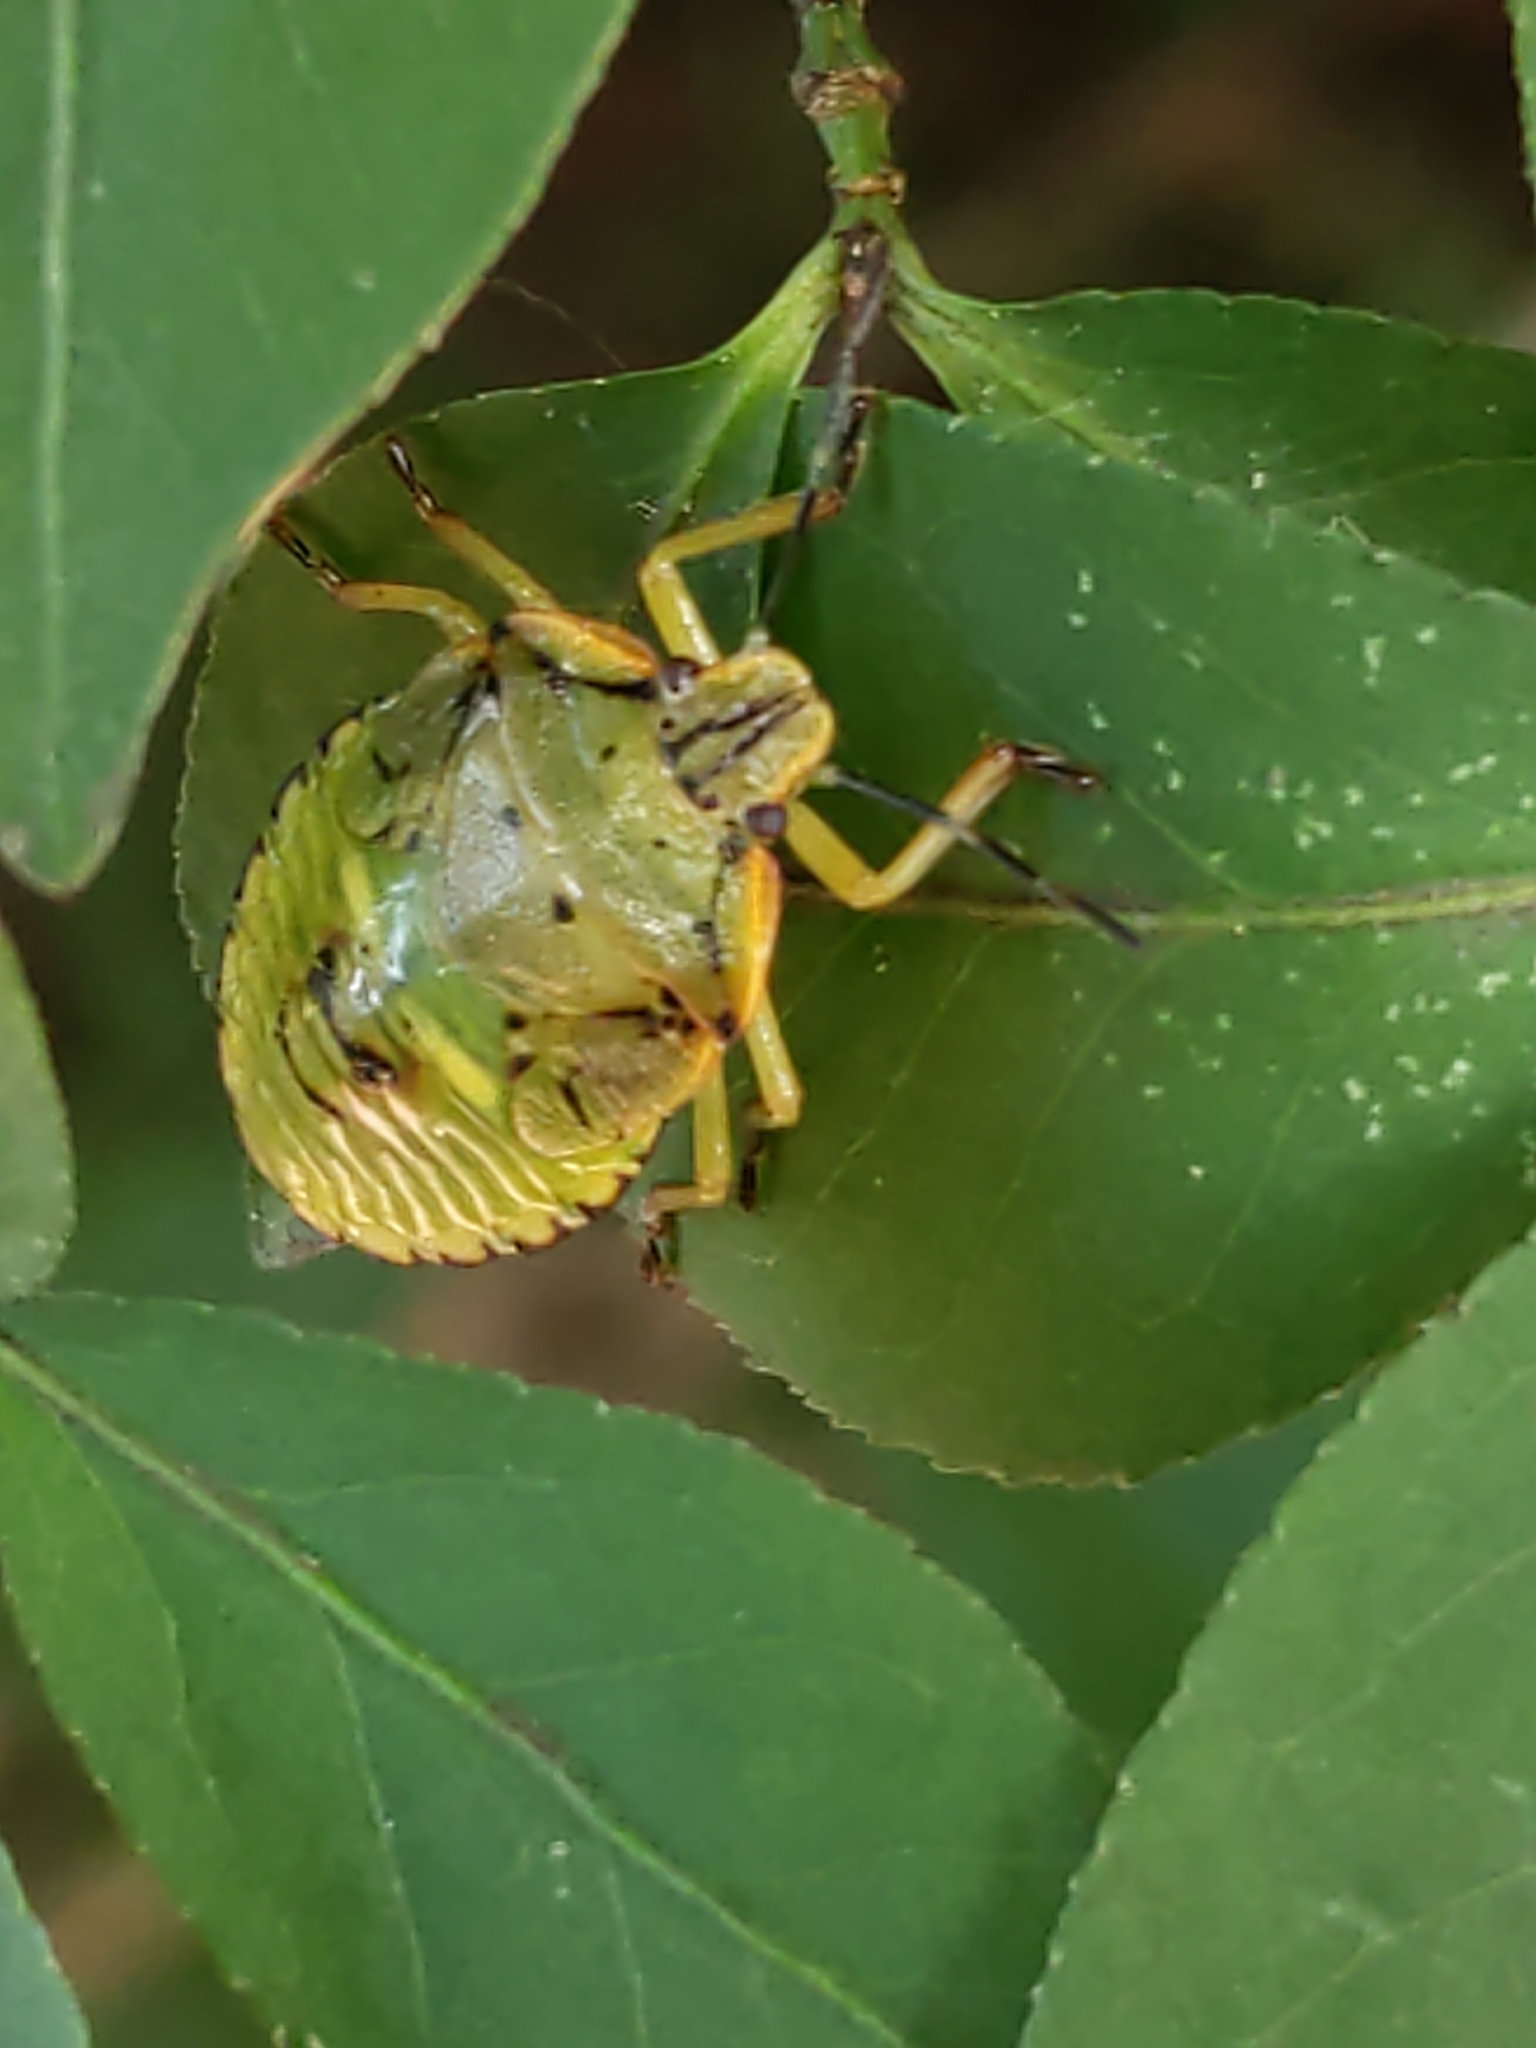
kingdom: Animalia
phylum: Arthropoda
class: Insecta
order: Hemiptera
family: Pentatomidae
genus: Chinavia
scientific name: Chinavia hilaris
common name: Green stink bug
